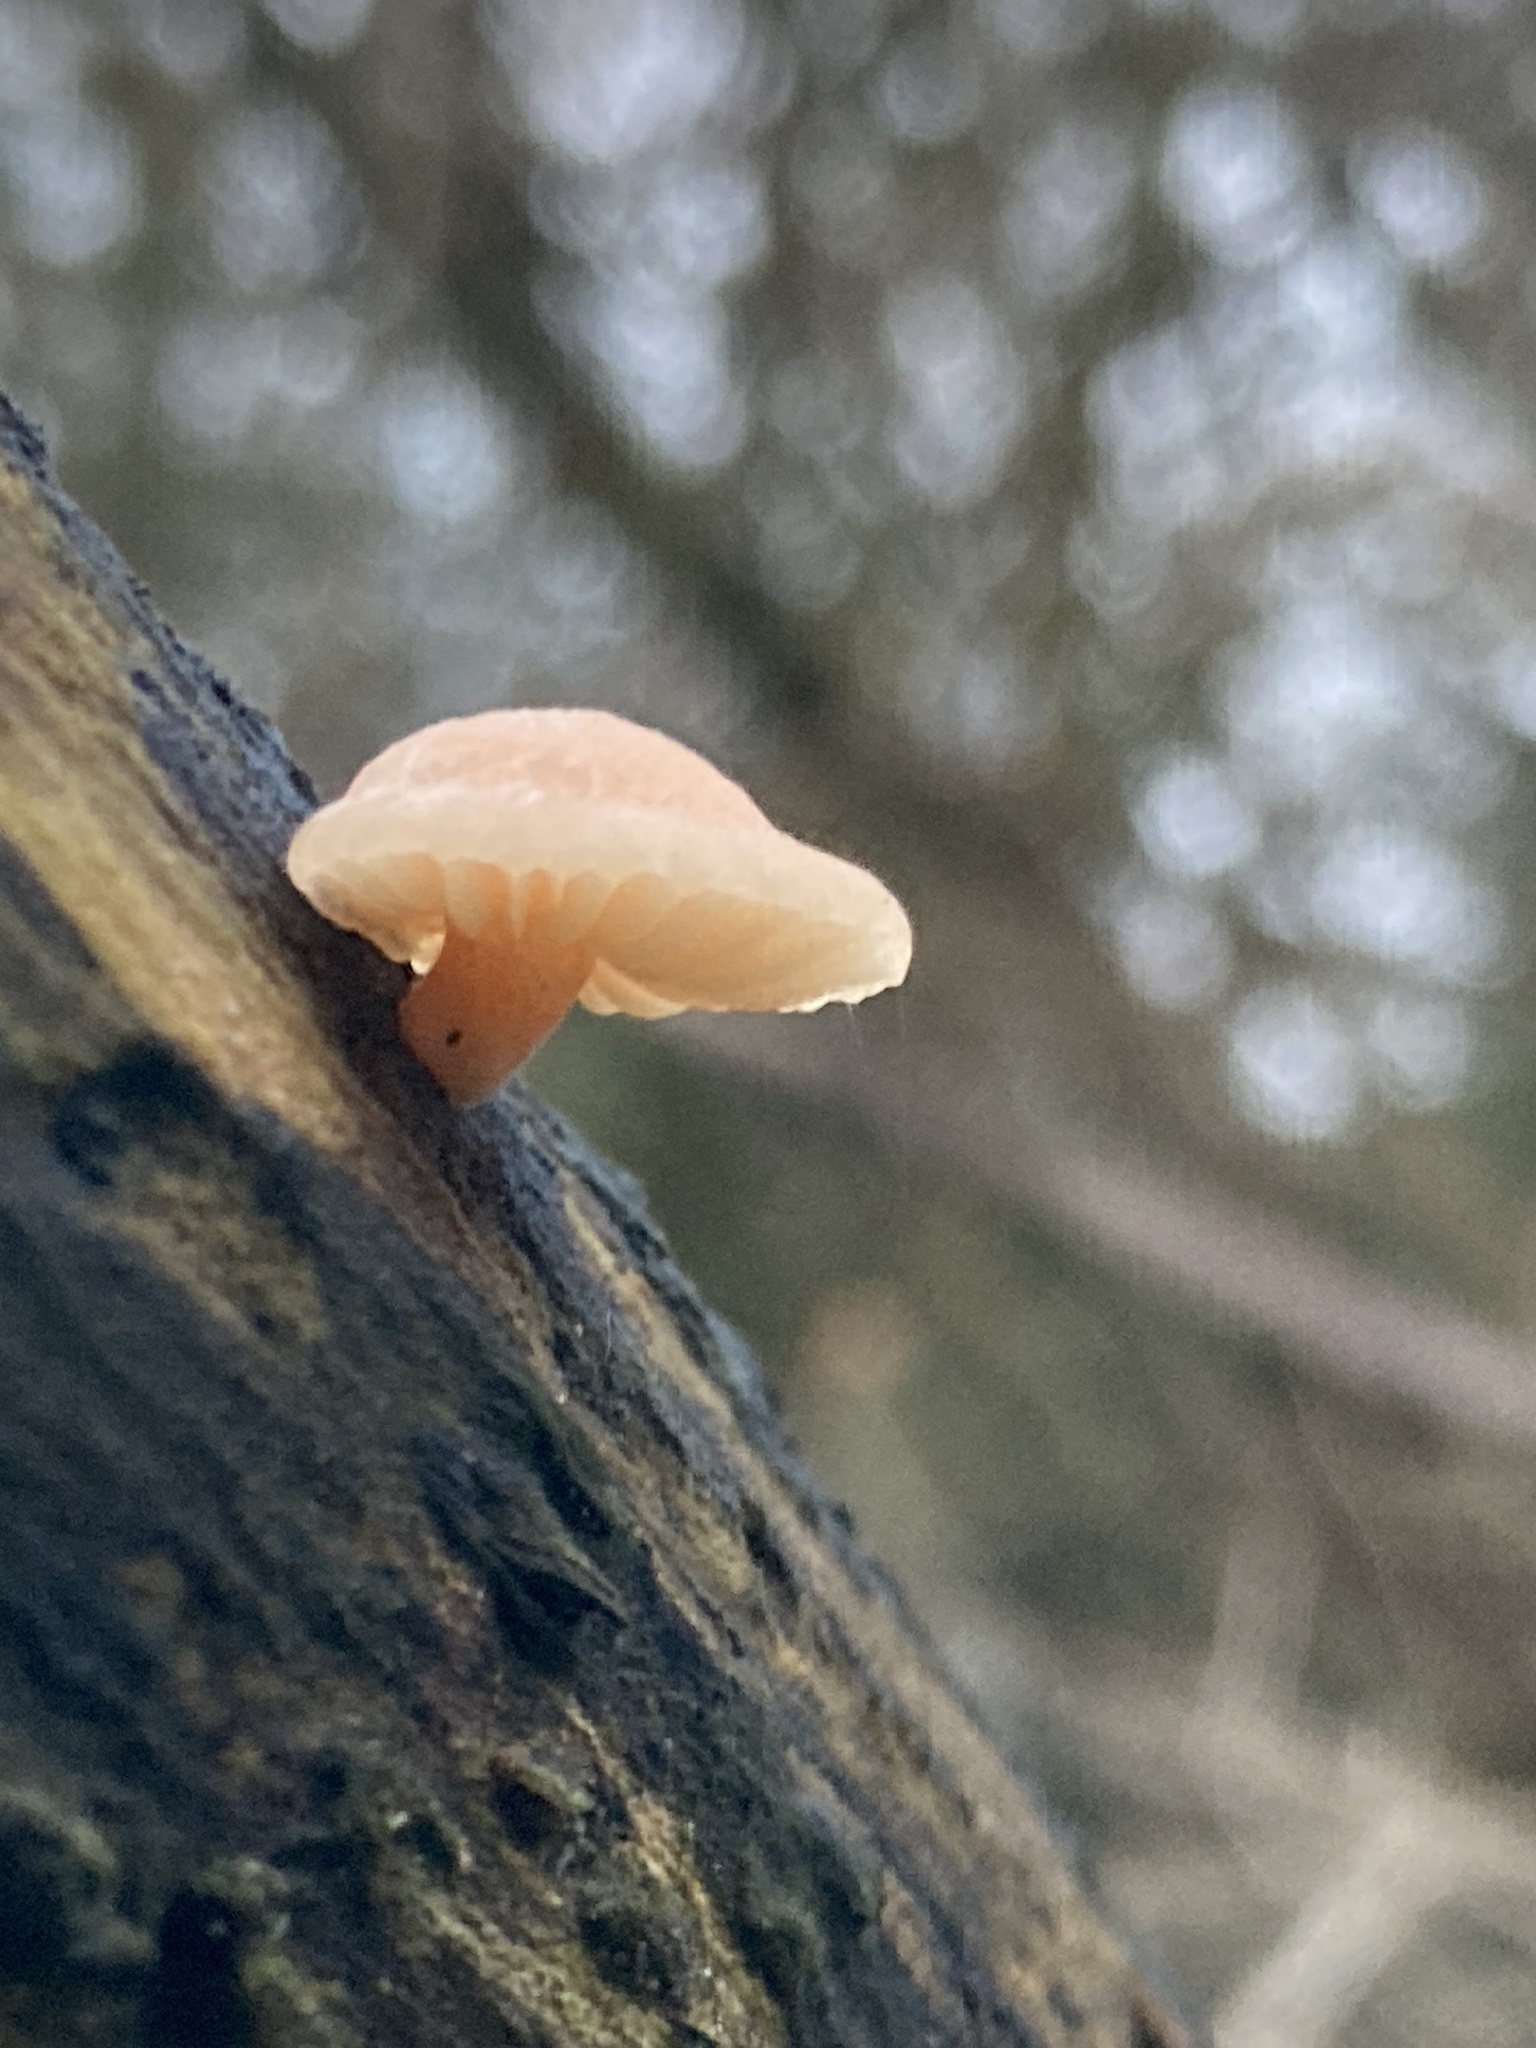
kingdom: Fungi
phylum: Basidiomycota
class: Agaricomycetes
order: Agaricales
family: Physalacriaceae
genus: Rhodotus
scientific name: Rhodotus palmatus
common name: Wrinkled peach
